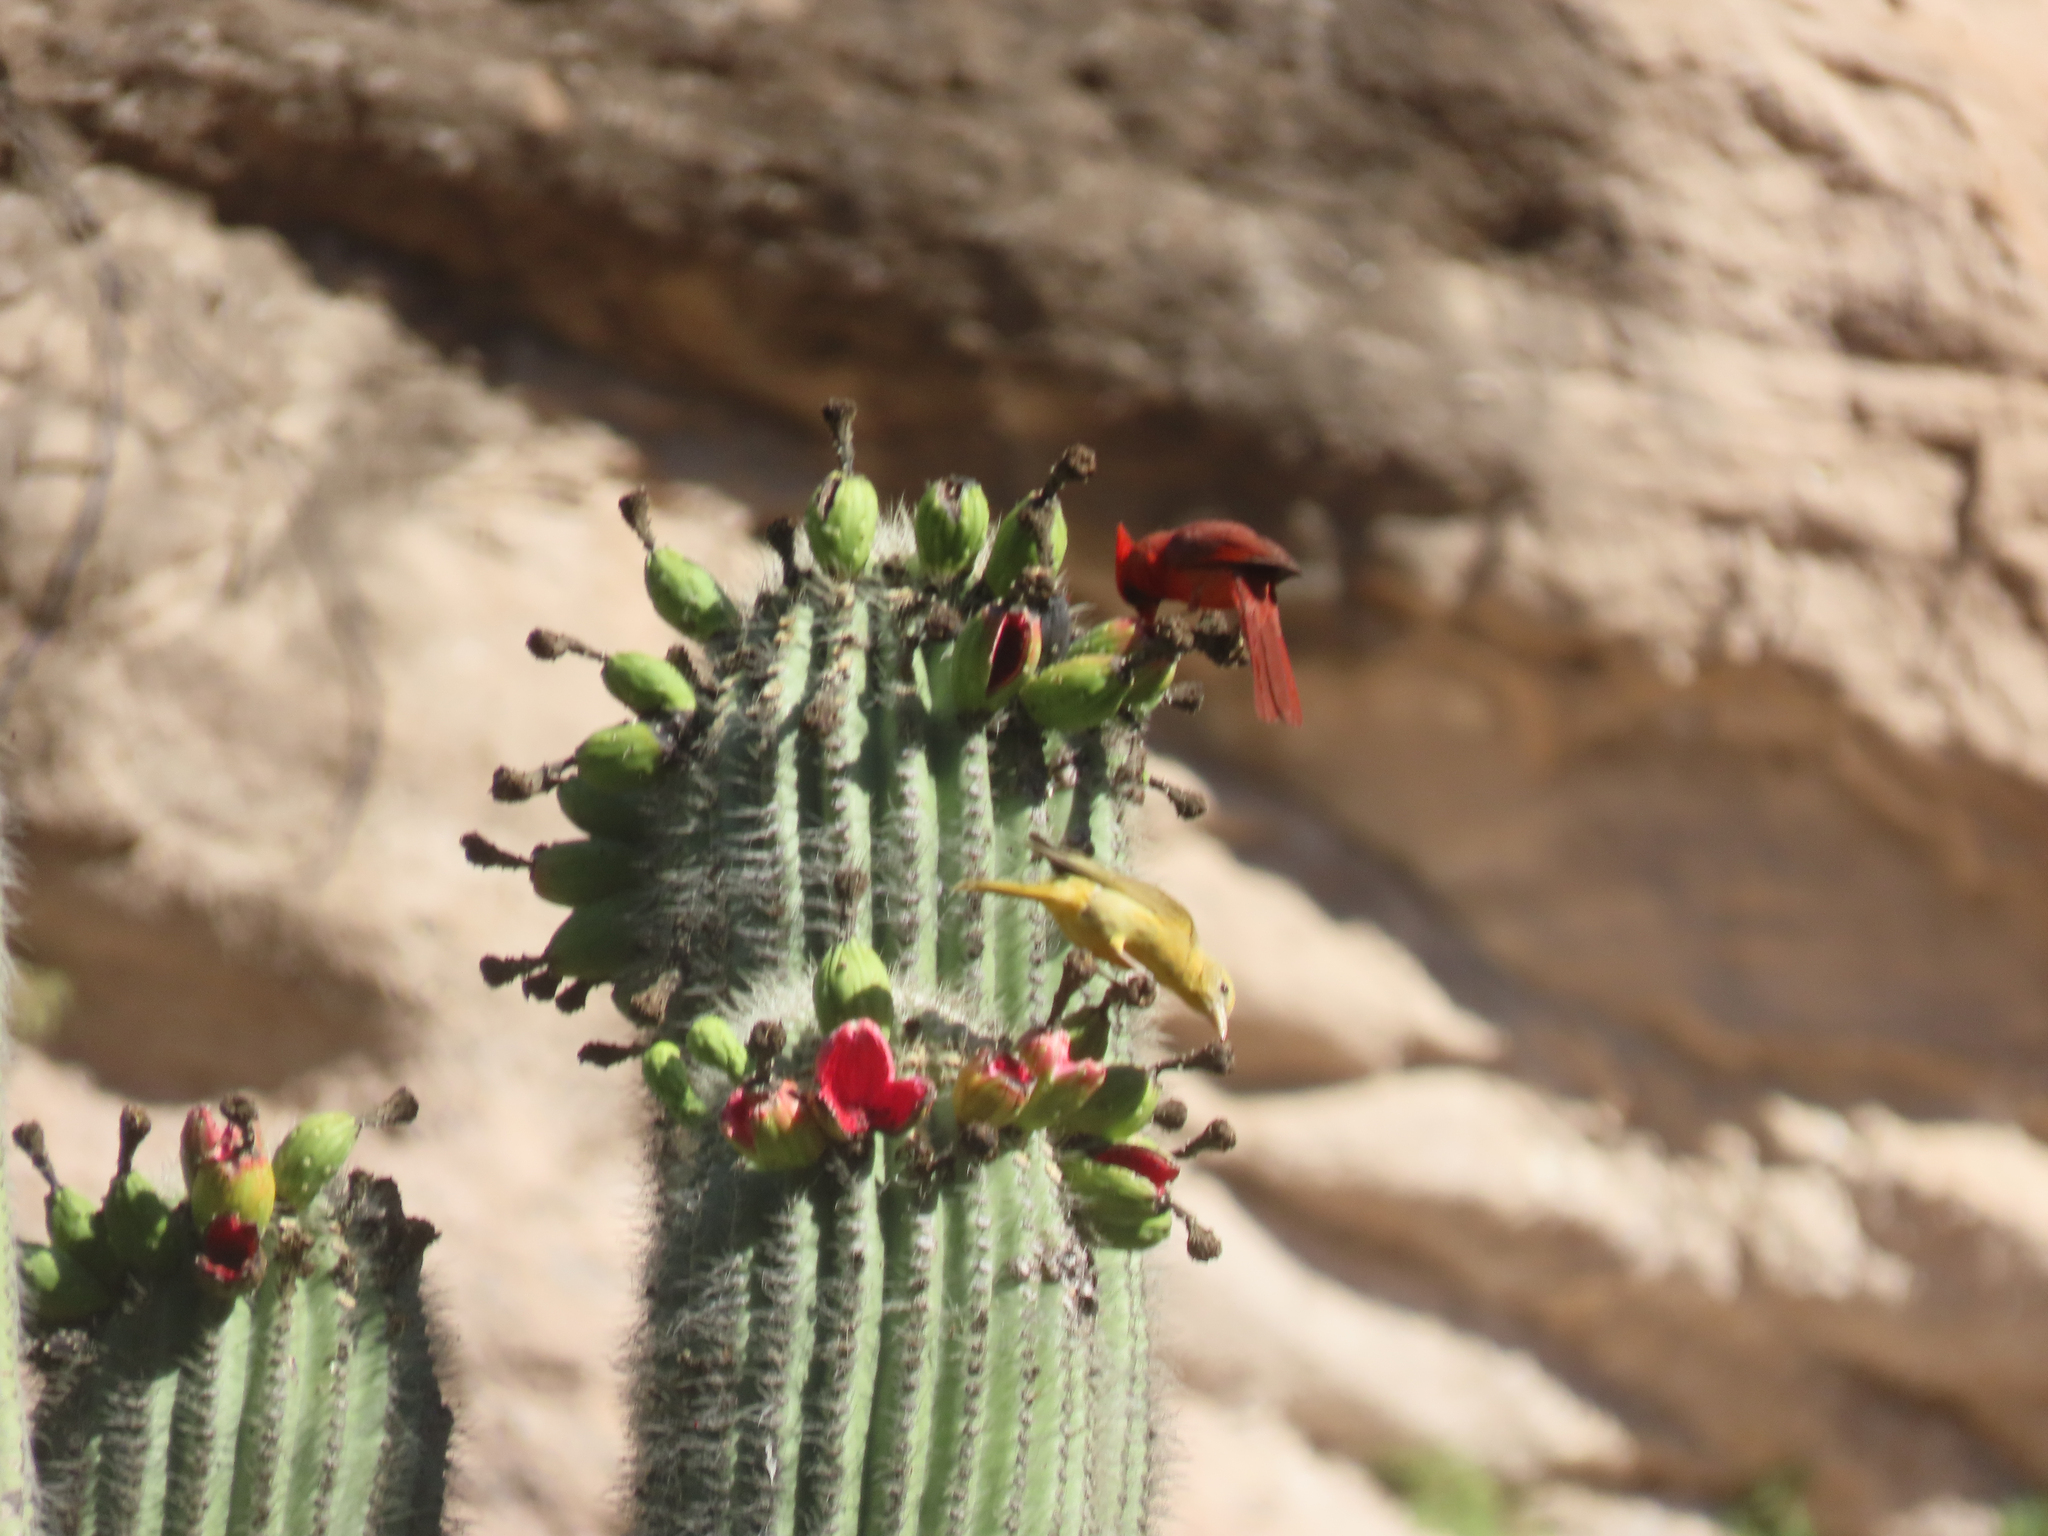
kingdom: Animalia
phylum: Chordata
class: Aves
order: Passeriformes
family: Cardinalidae
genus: Cardinalis
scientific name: Cardinalis cardinalis
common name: Northern cardinal
